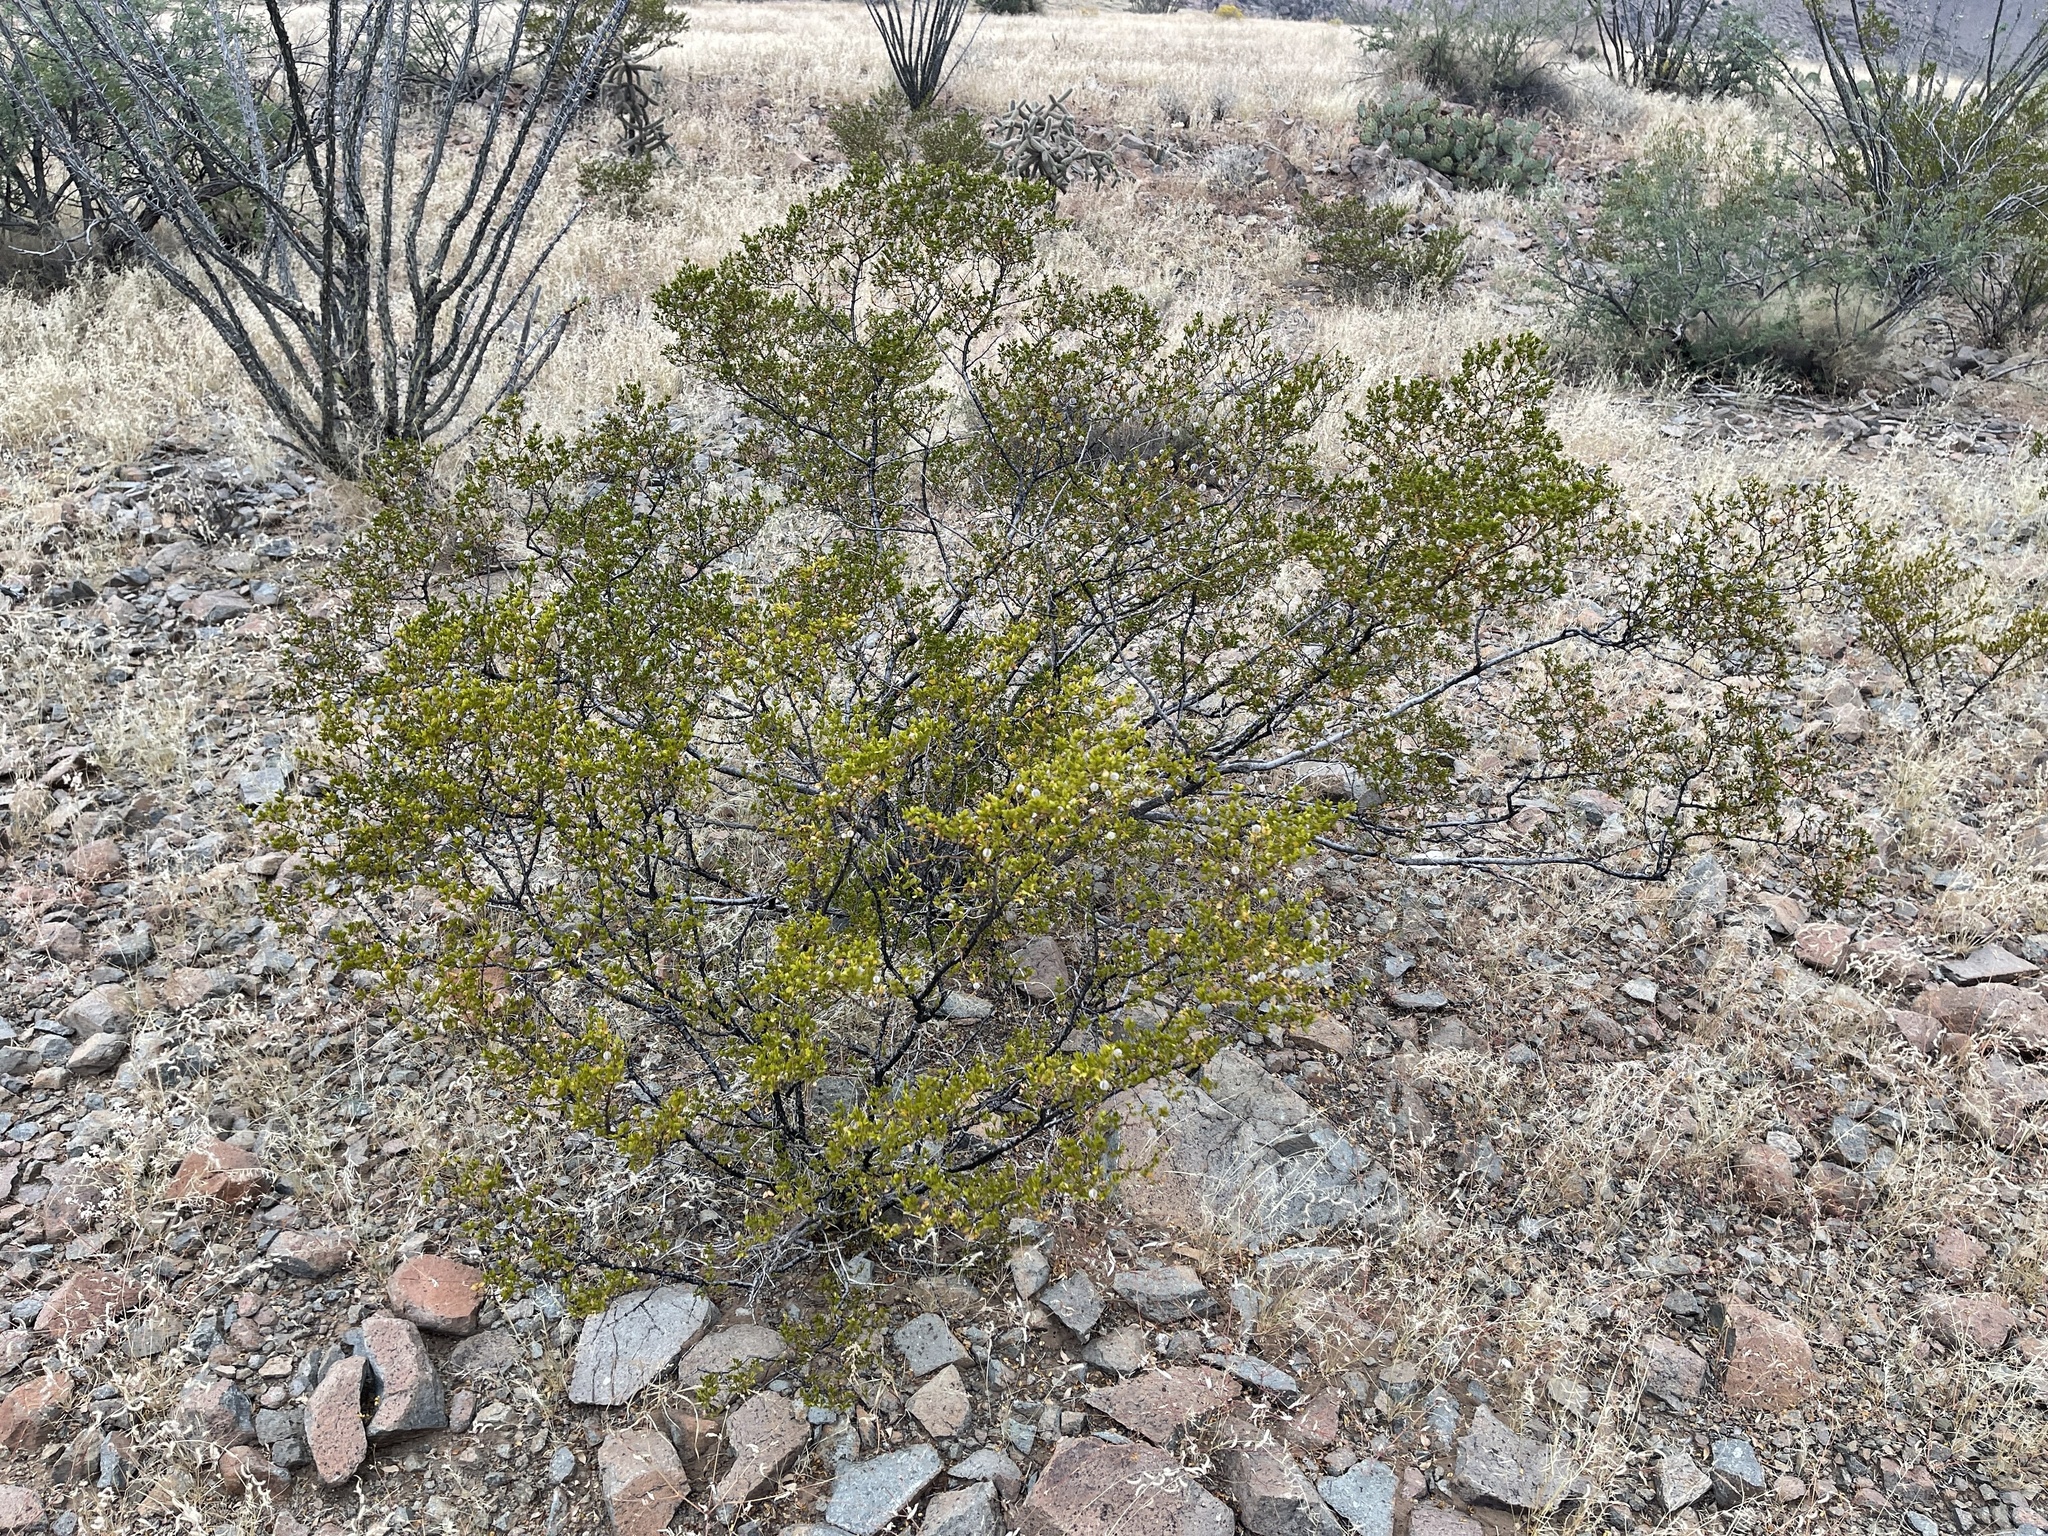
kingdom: Plantae
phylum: Tracheophyta
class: Magnoliopsida
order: Zygophyllales
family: Zygophyllaceae
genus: Larrea
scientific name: Larrea tridentata
